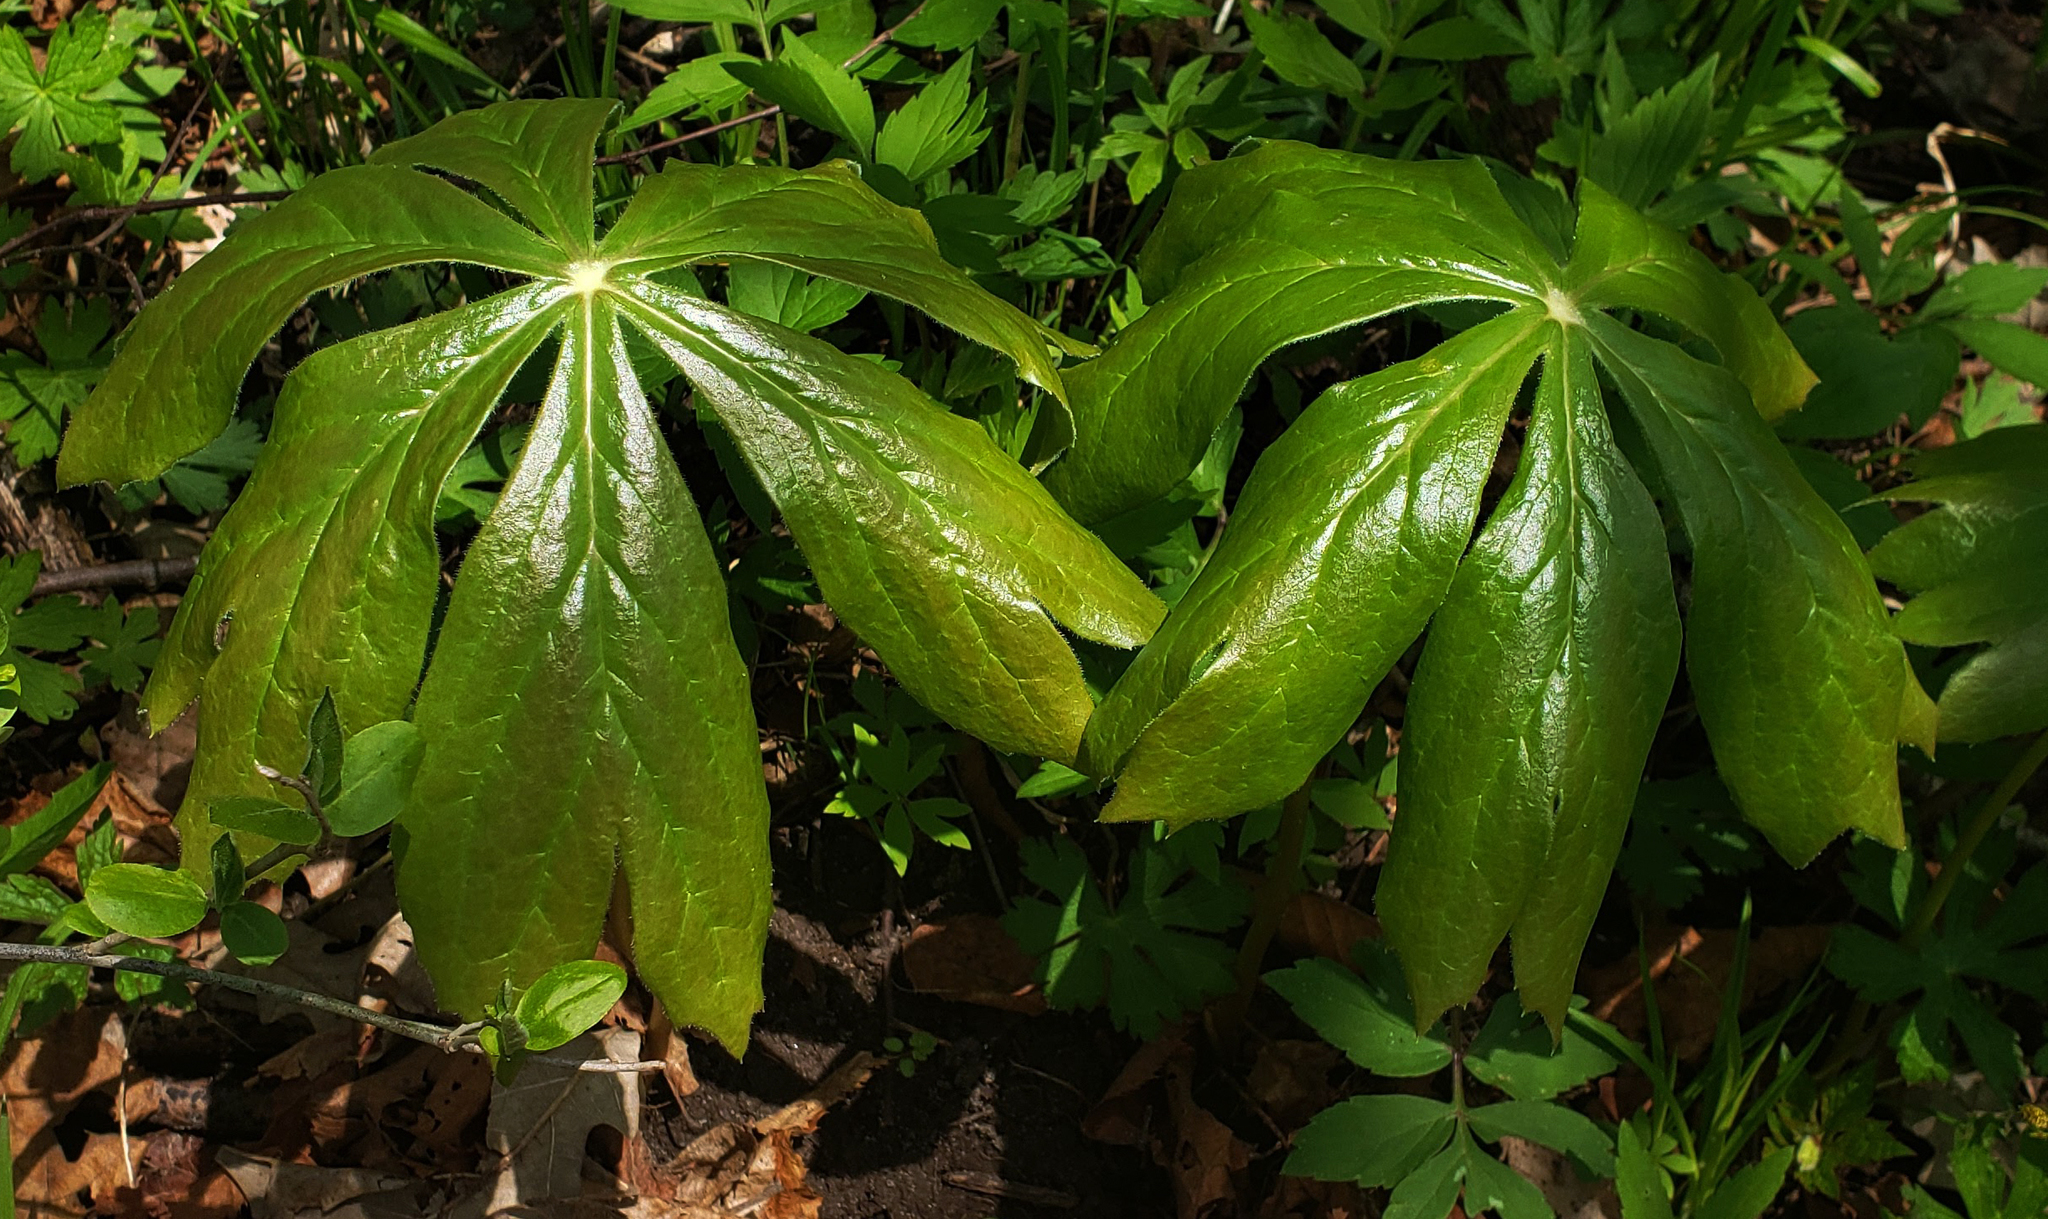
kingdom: Plantae
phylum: Tracheophyta
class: Magnoliopsida
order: Ranunculales
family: Berberidaceae
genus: Podophyllum
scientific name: Podophyllum peltatum
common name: Wild mandrake
